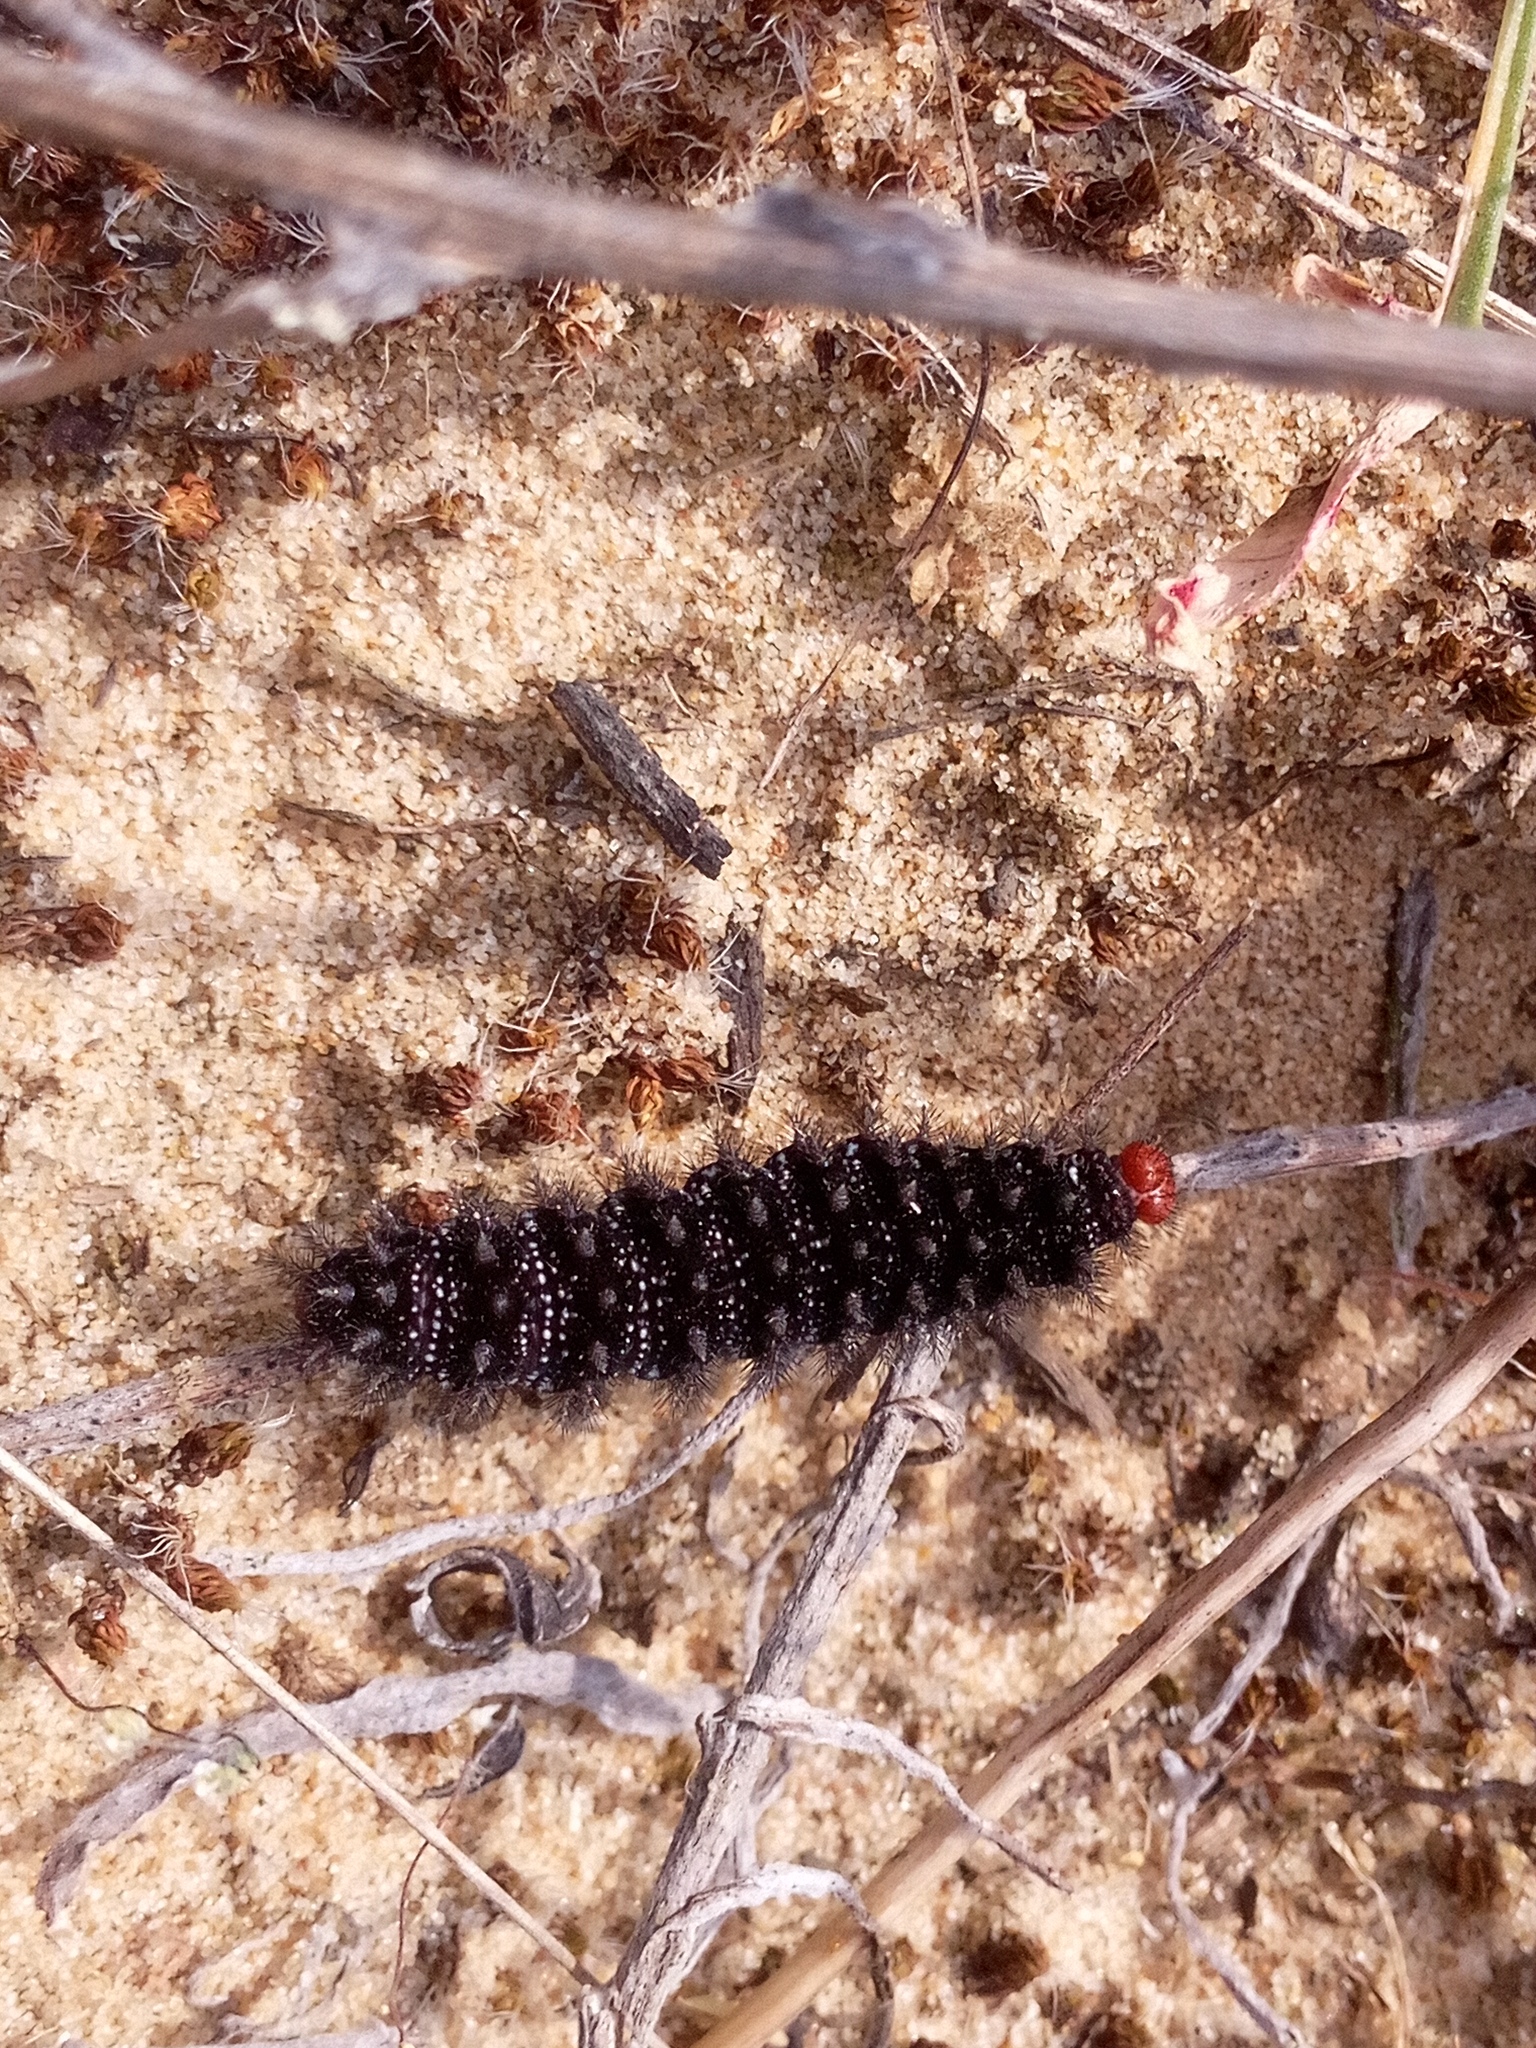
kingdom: Animalia
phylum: Arthropoda
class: Insecta
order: Lepidoptera
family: Nymphalidae
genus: Melitaea
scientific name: Melitaea cinxia
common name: Glanville fritillary
